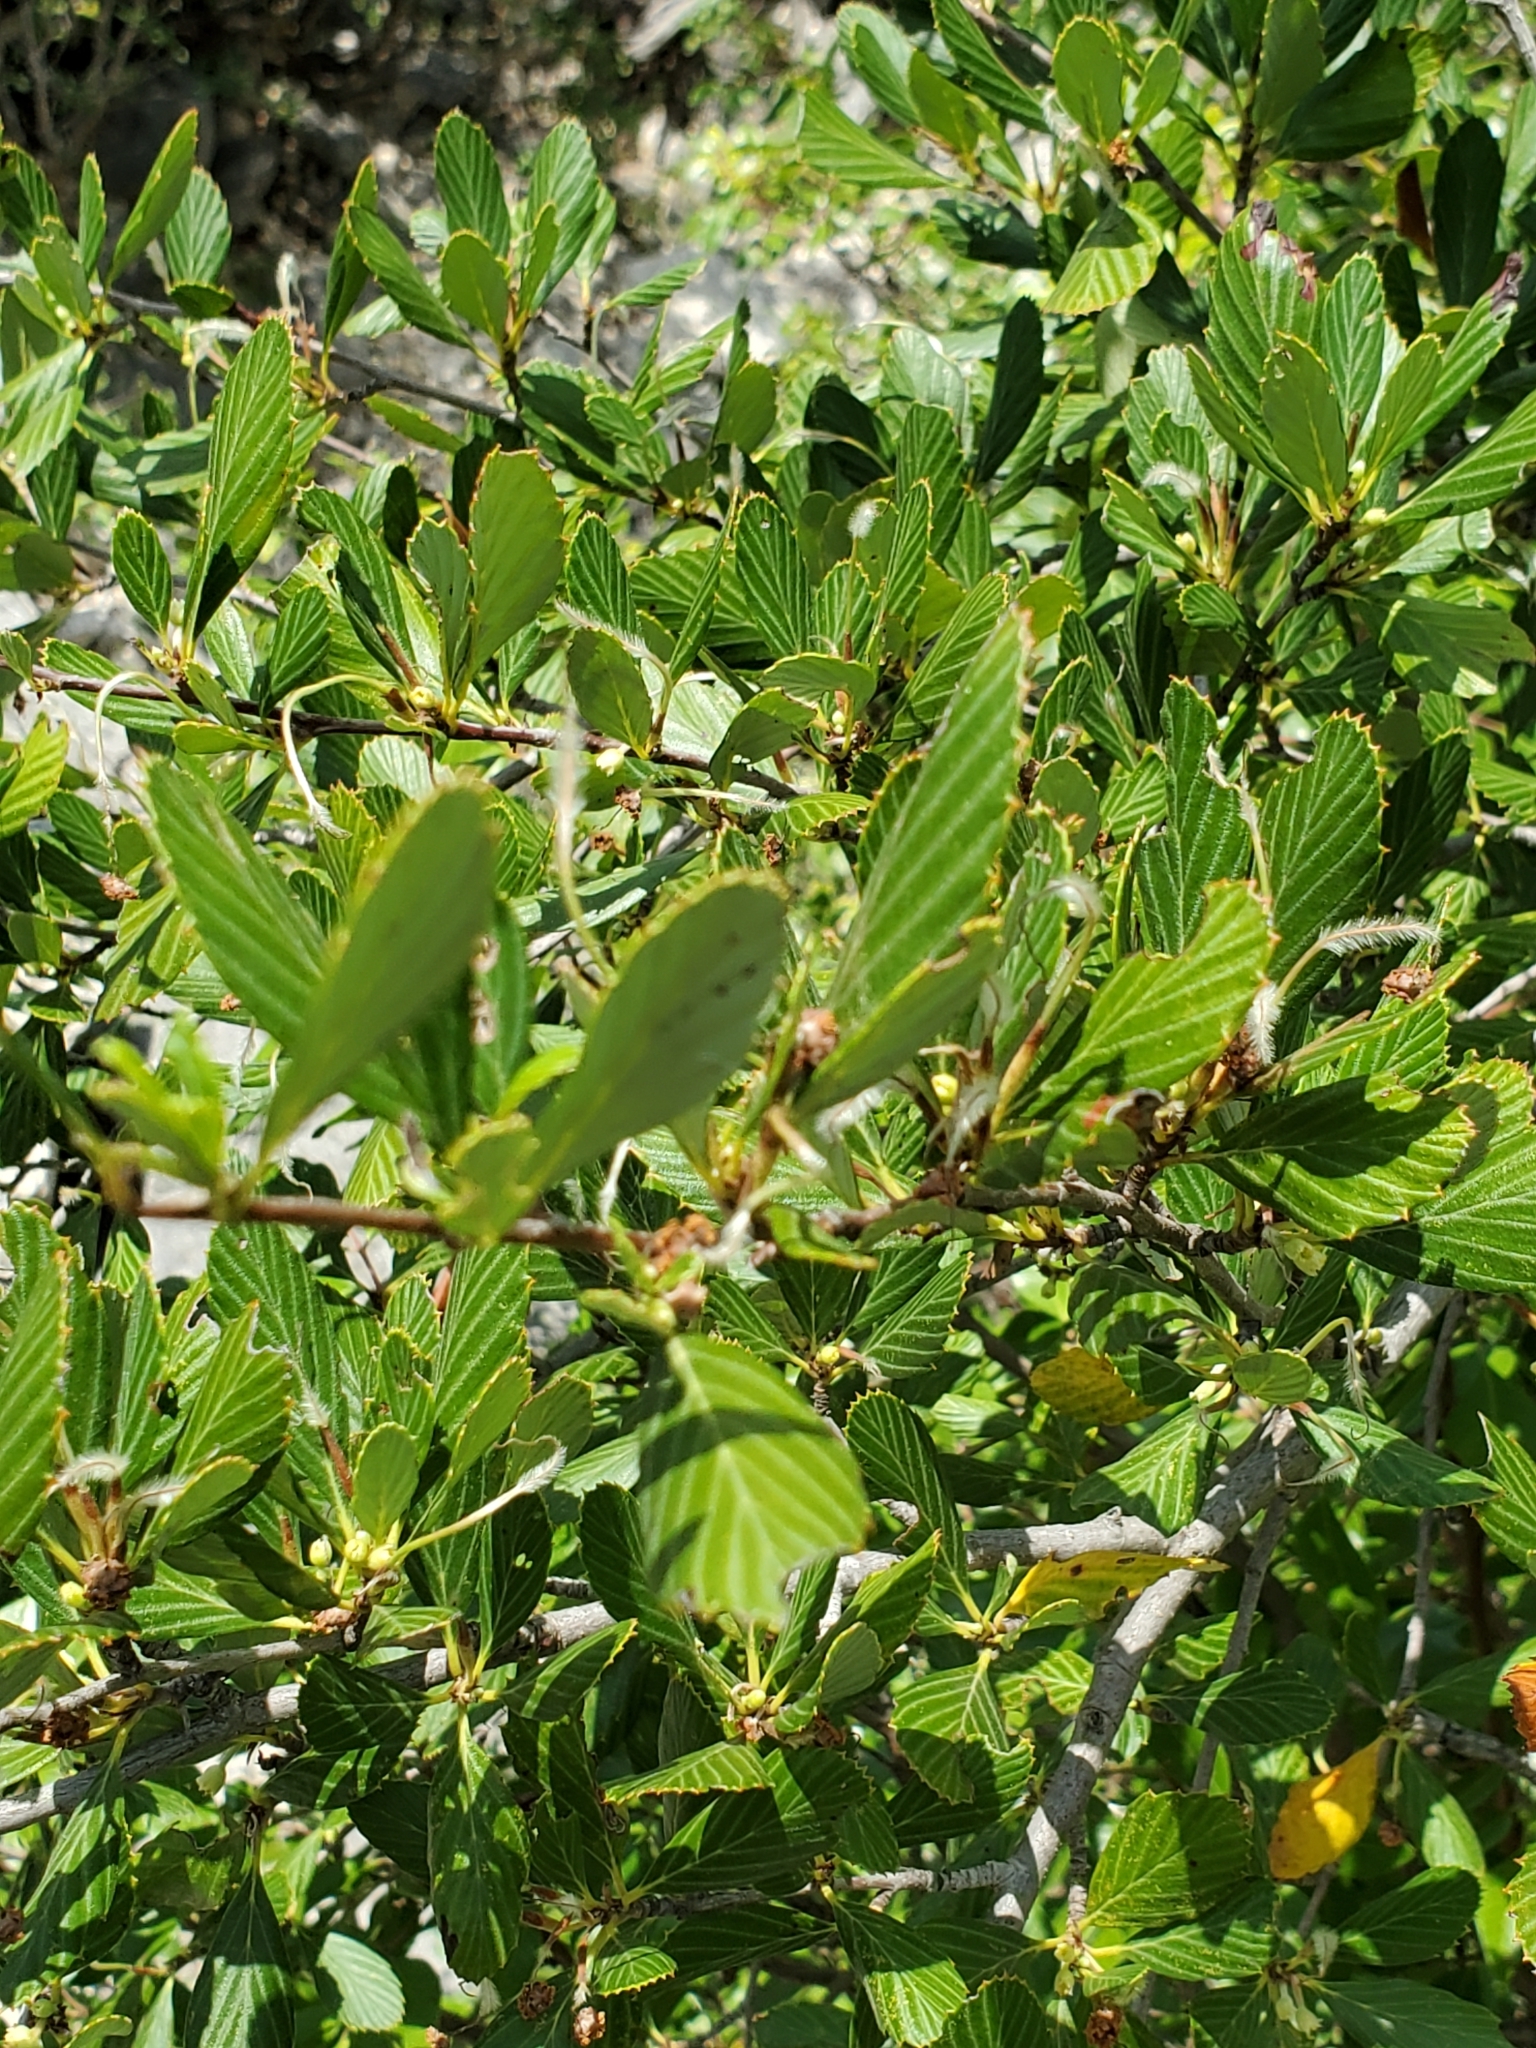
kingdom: Plantae
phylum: Tracheophyta
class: Magnoliopsida
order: Rosales
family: Rosaceae
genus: Cercocarpus
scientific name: Cercocarpus montanus
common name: Alder-leaf cercocarpus
